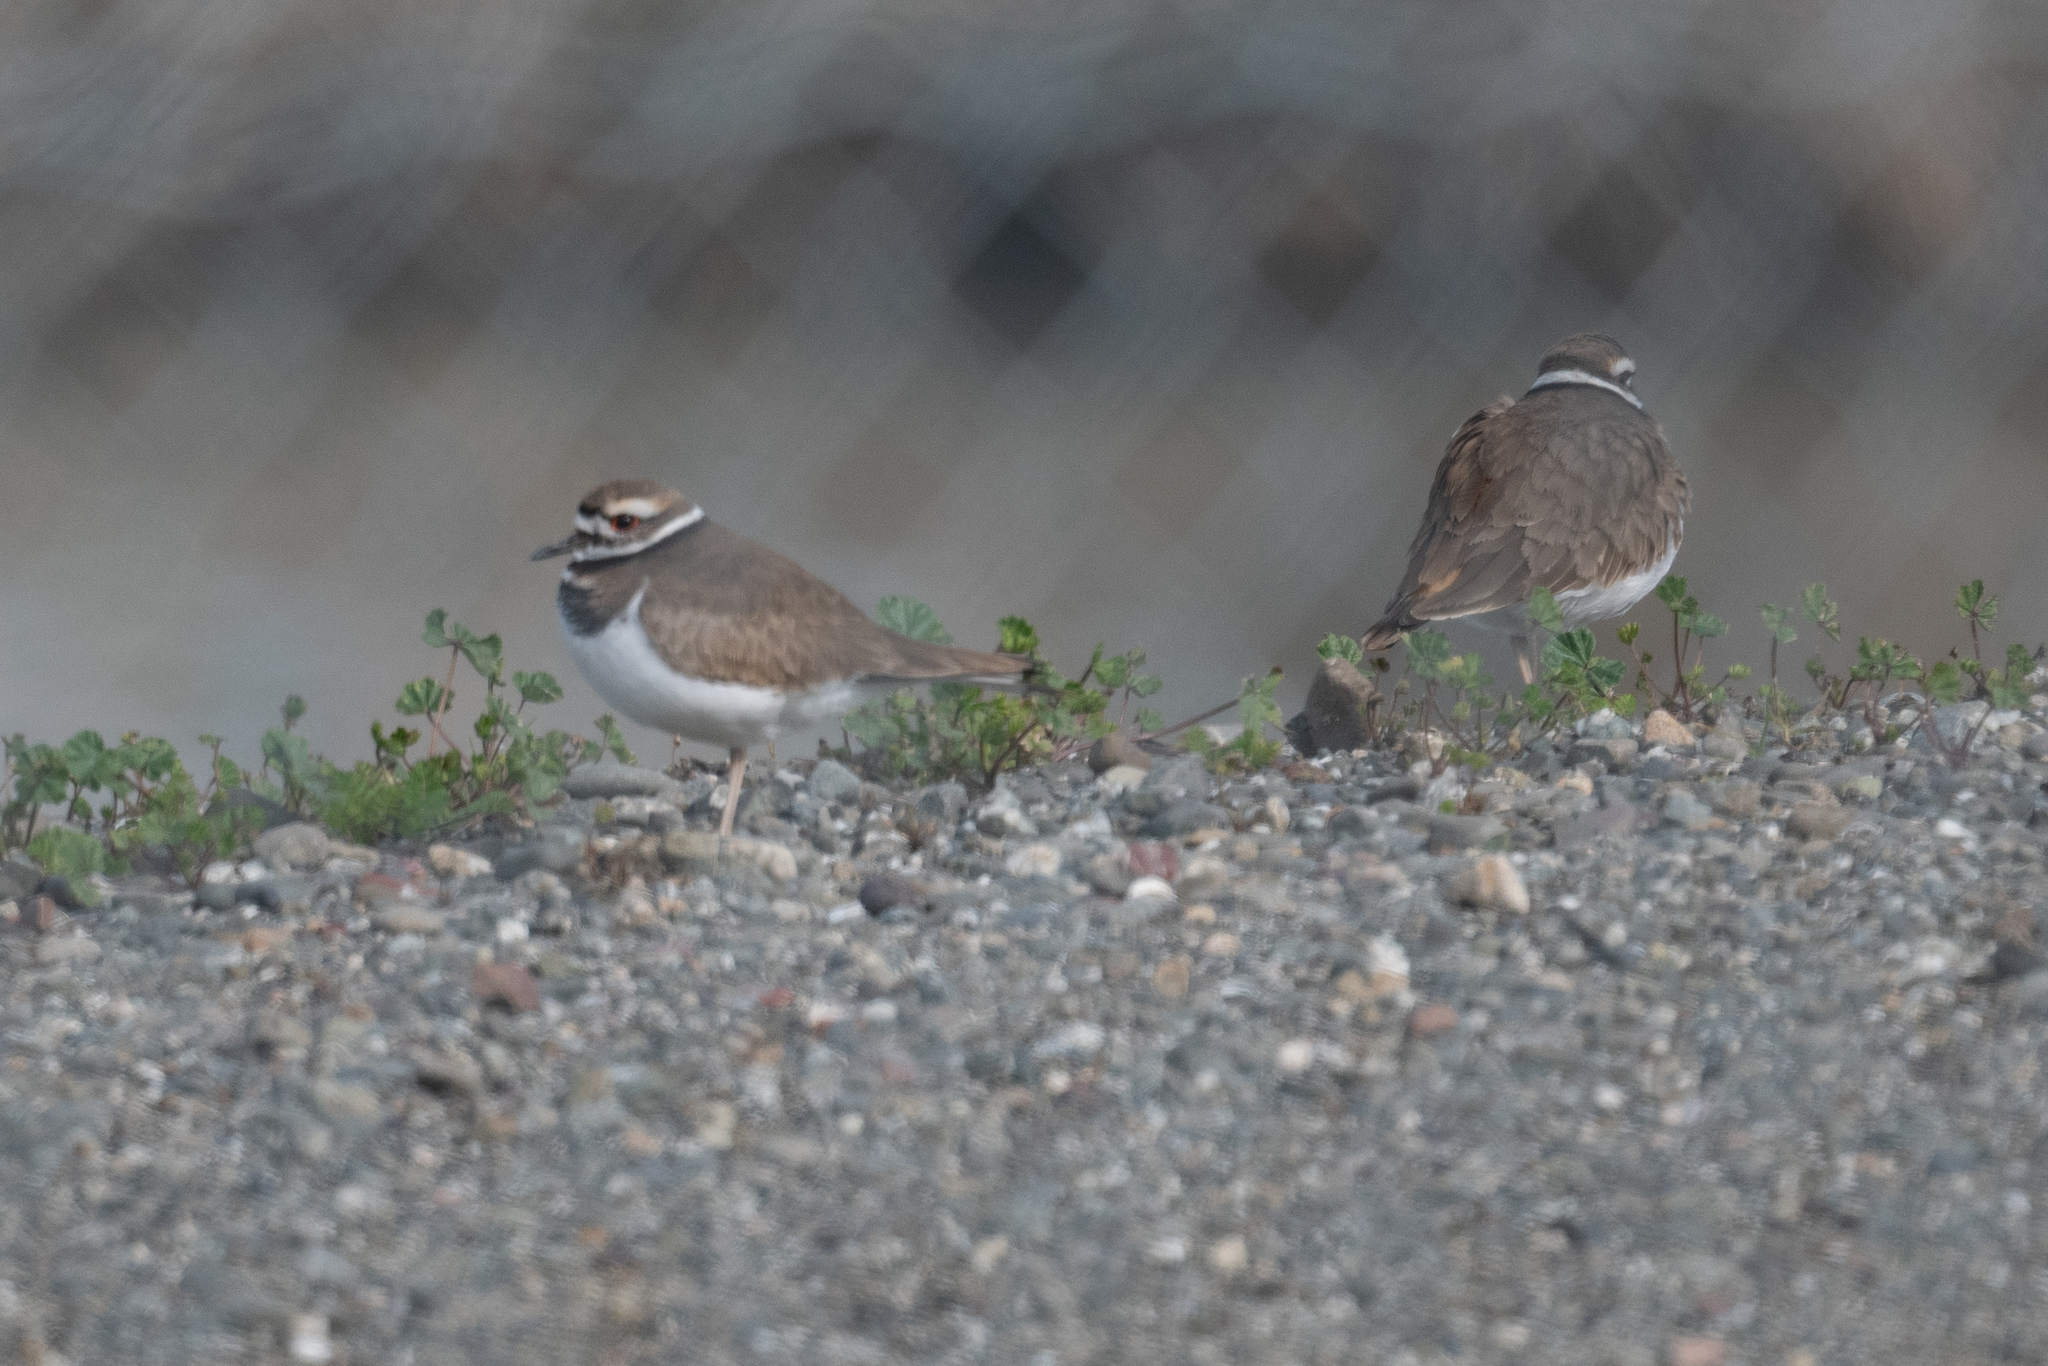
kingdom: Animalia
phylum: Chordata
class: Aves
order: Charadriiformes
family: Charadriidae
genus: Charadrius
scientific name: Charadrius vociferus
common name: Killdeer
